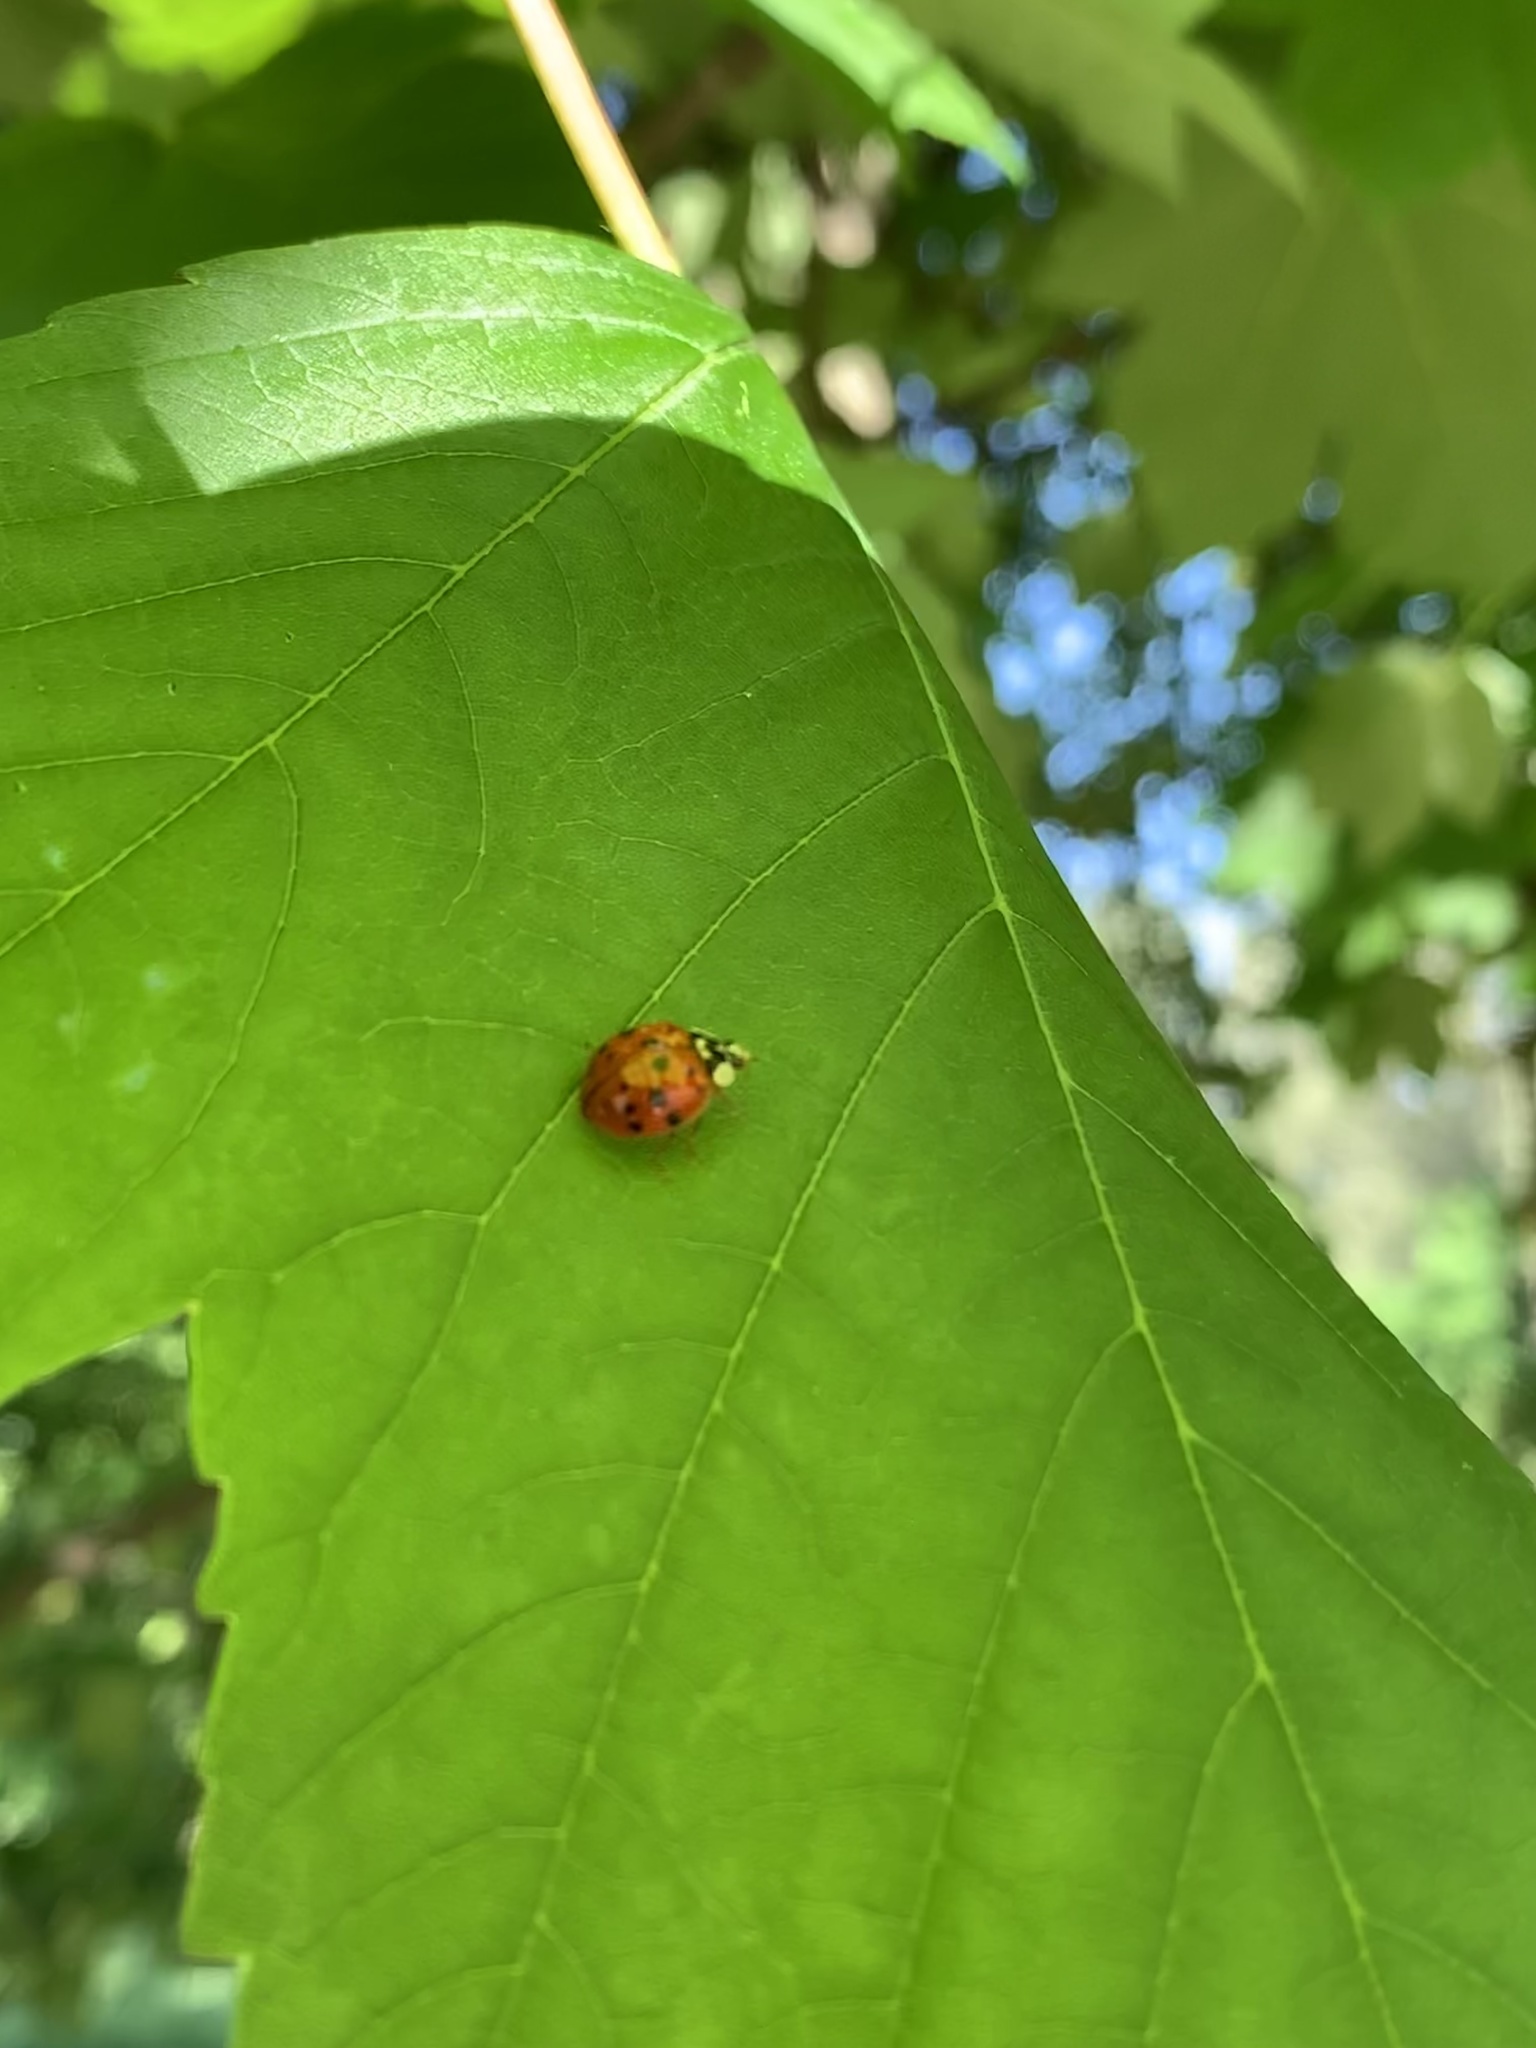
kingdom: Animalia
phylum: Arthropoda
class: Insecta
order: Coleoptera
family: Coccinellidae
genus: Harmonia
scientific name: Harmonia axyridis
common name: Harlequin ladybird
